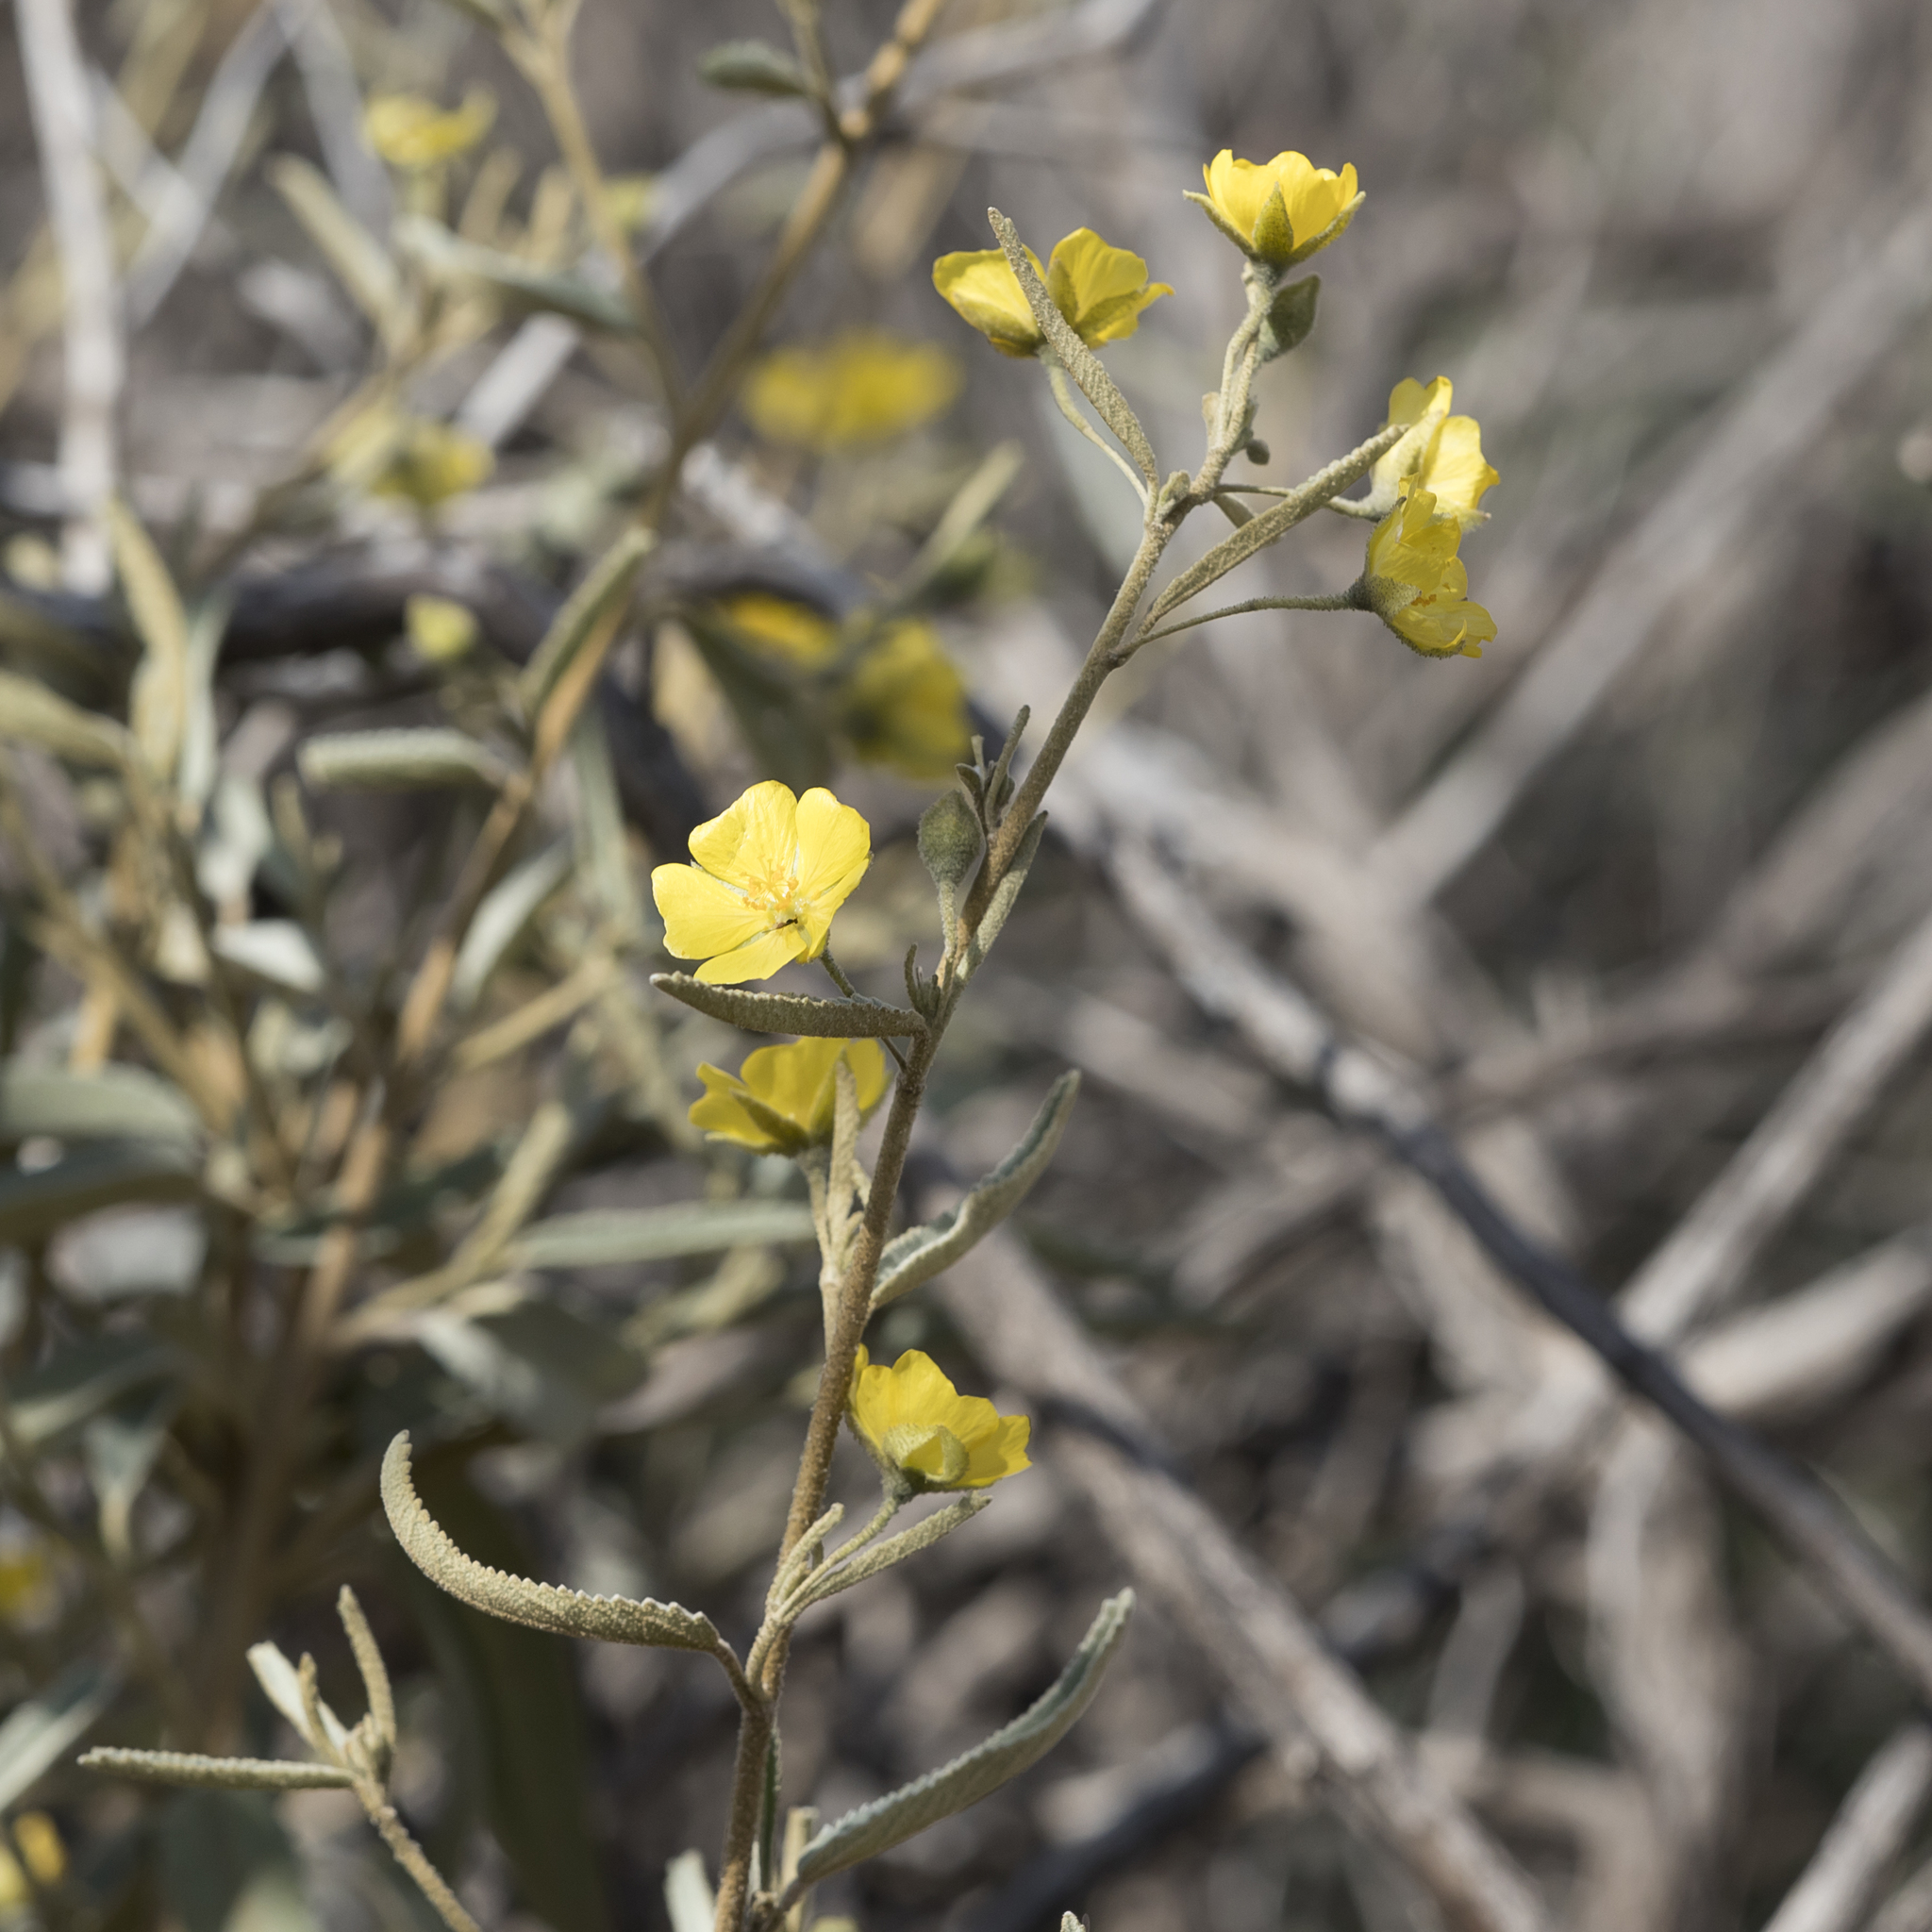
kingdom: Plantae
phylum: Tracheophyta
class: Magnoliopsida
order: Malvales
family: Malvaceae
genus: Sida
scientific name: Sida calyxhymenia
